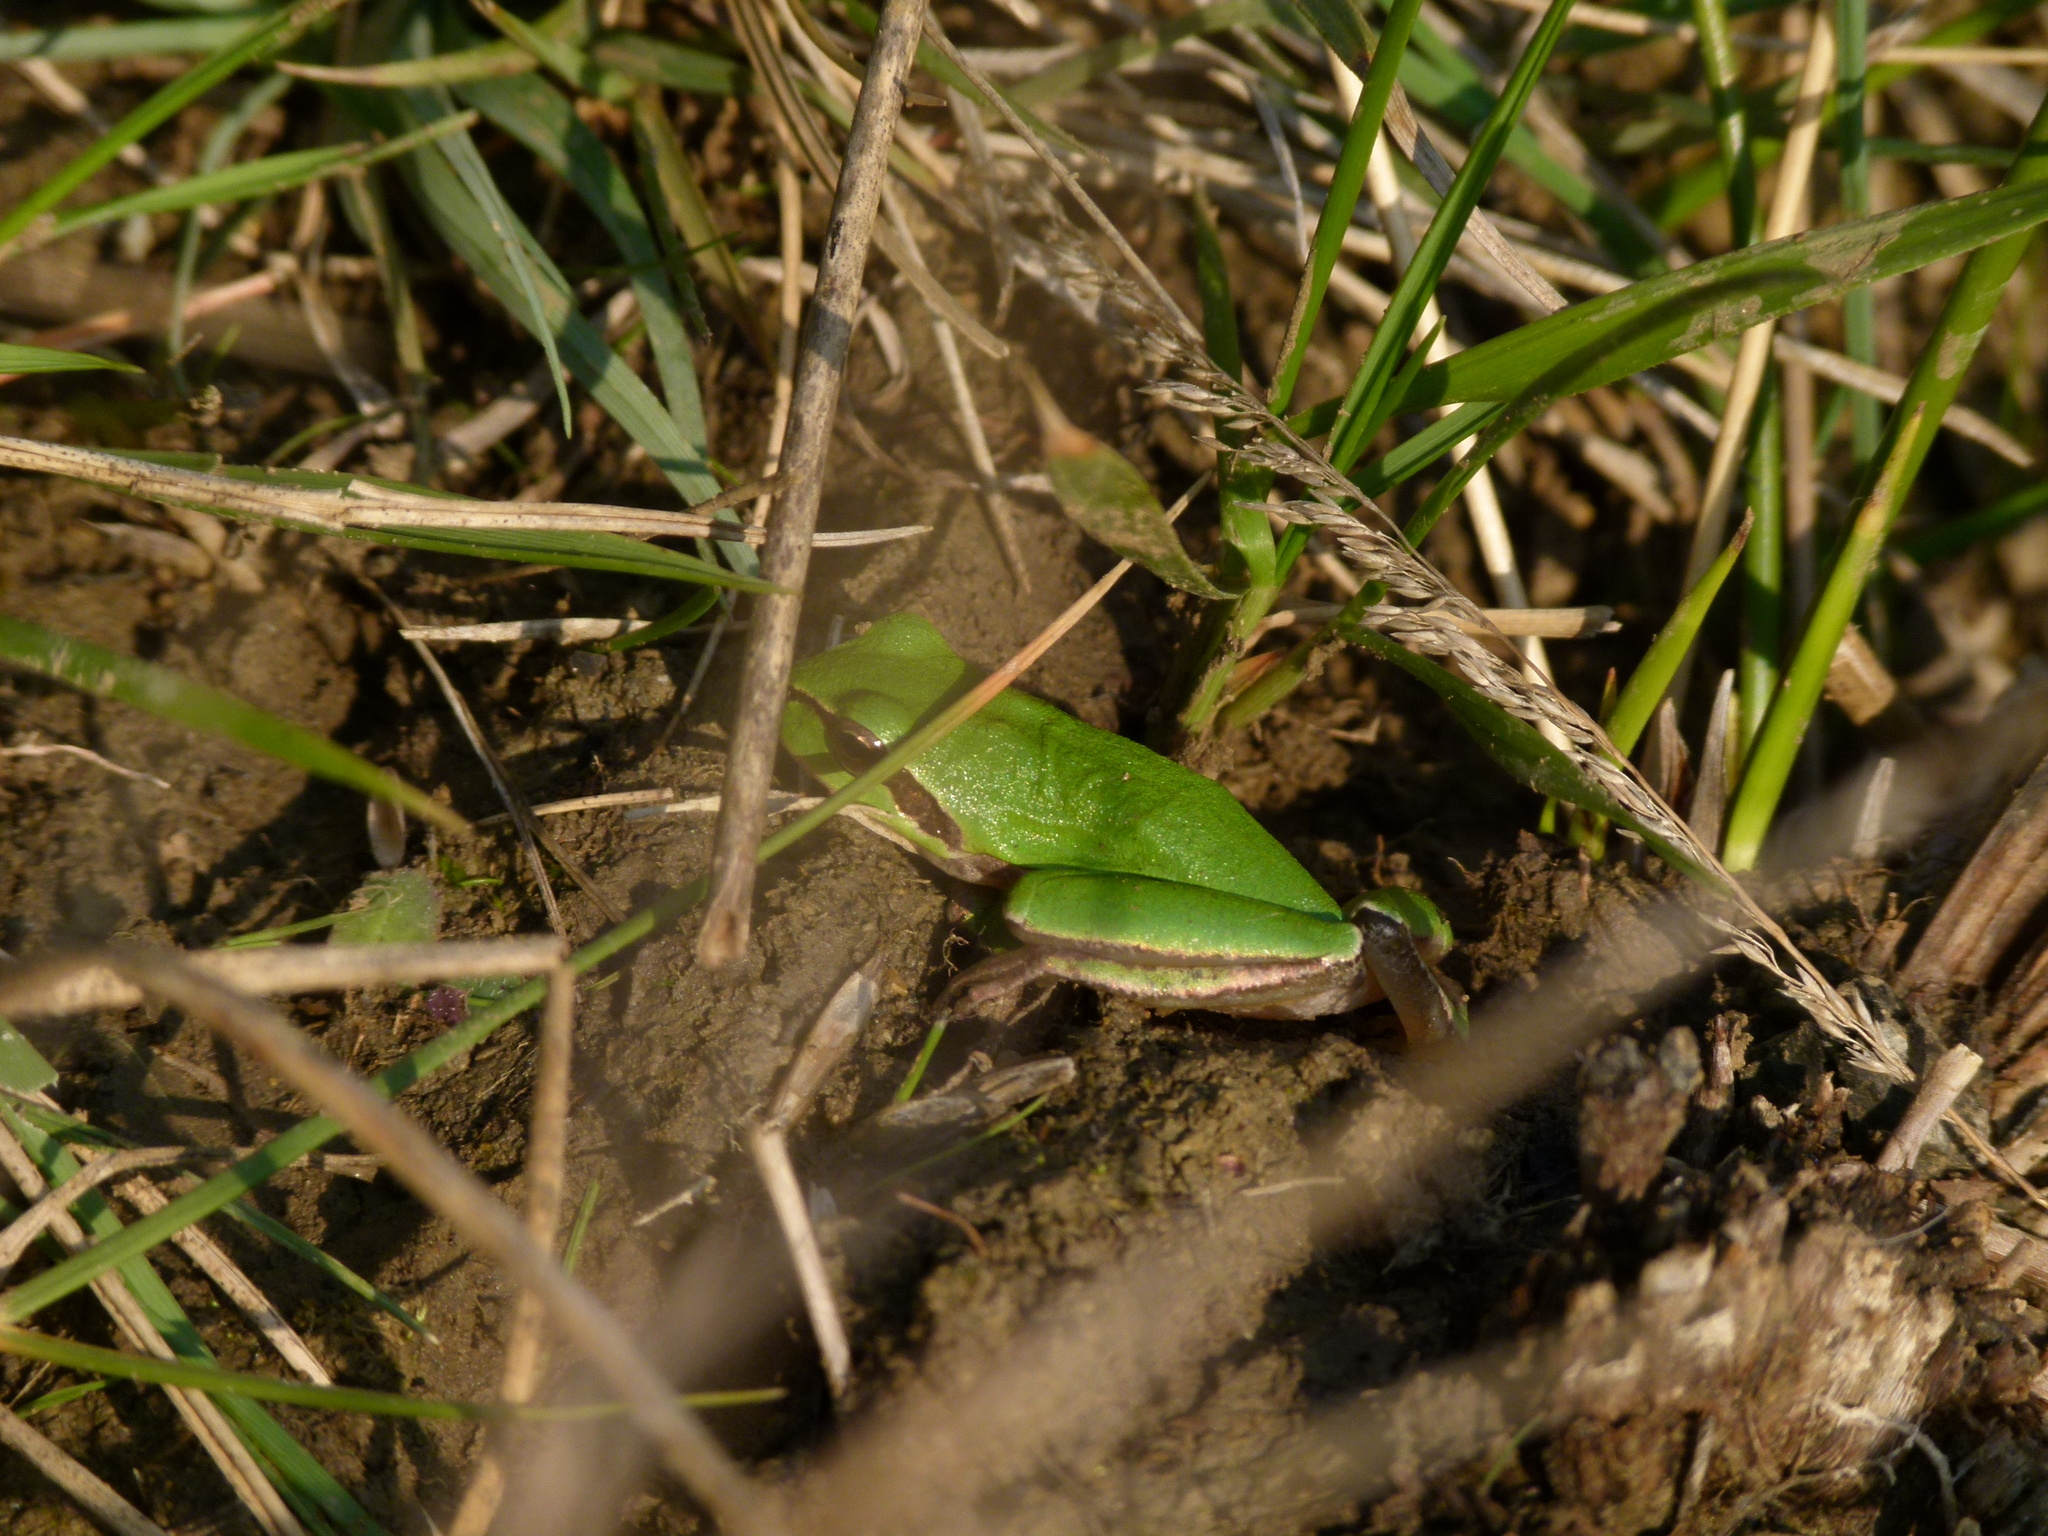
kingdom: Animalia
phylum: Chordata
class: Amphibia
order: Anura
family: Hylidae
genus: Hyla
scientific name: Hyla meridionalis
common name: Stripeless tree frog
